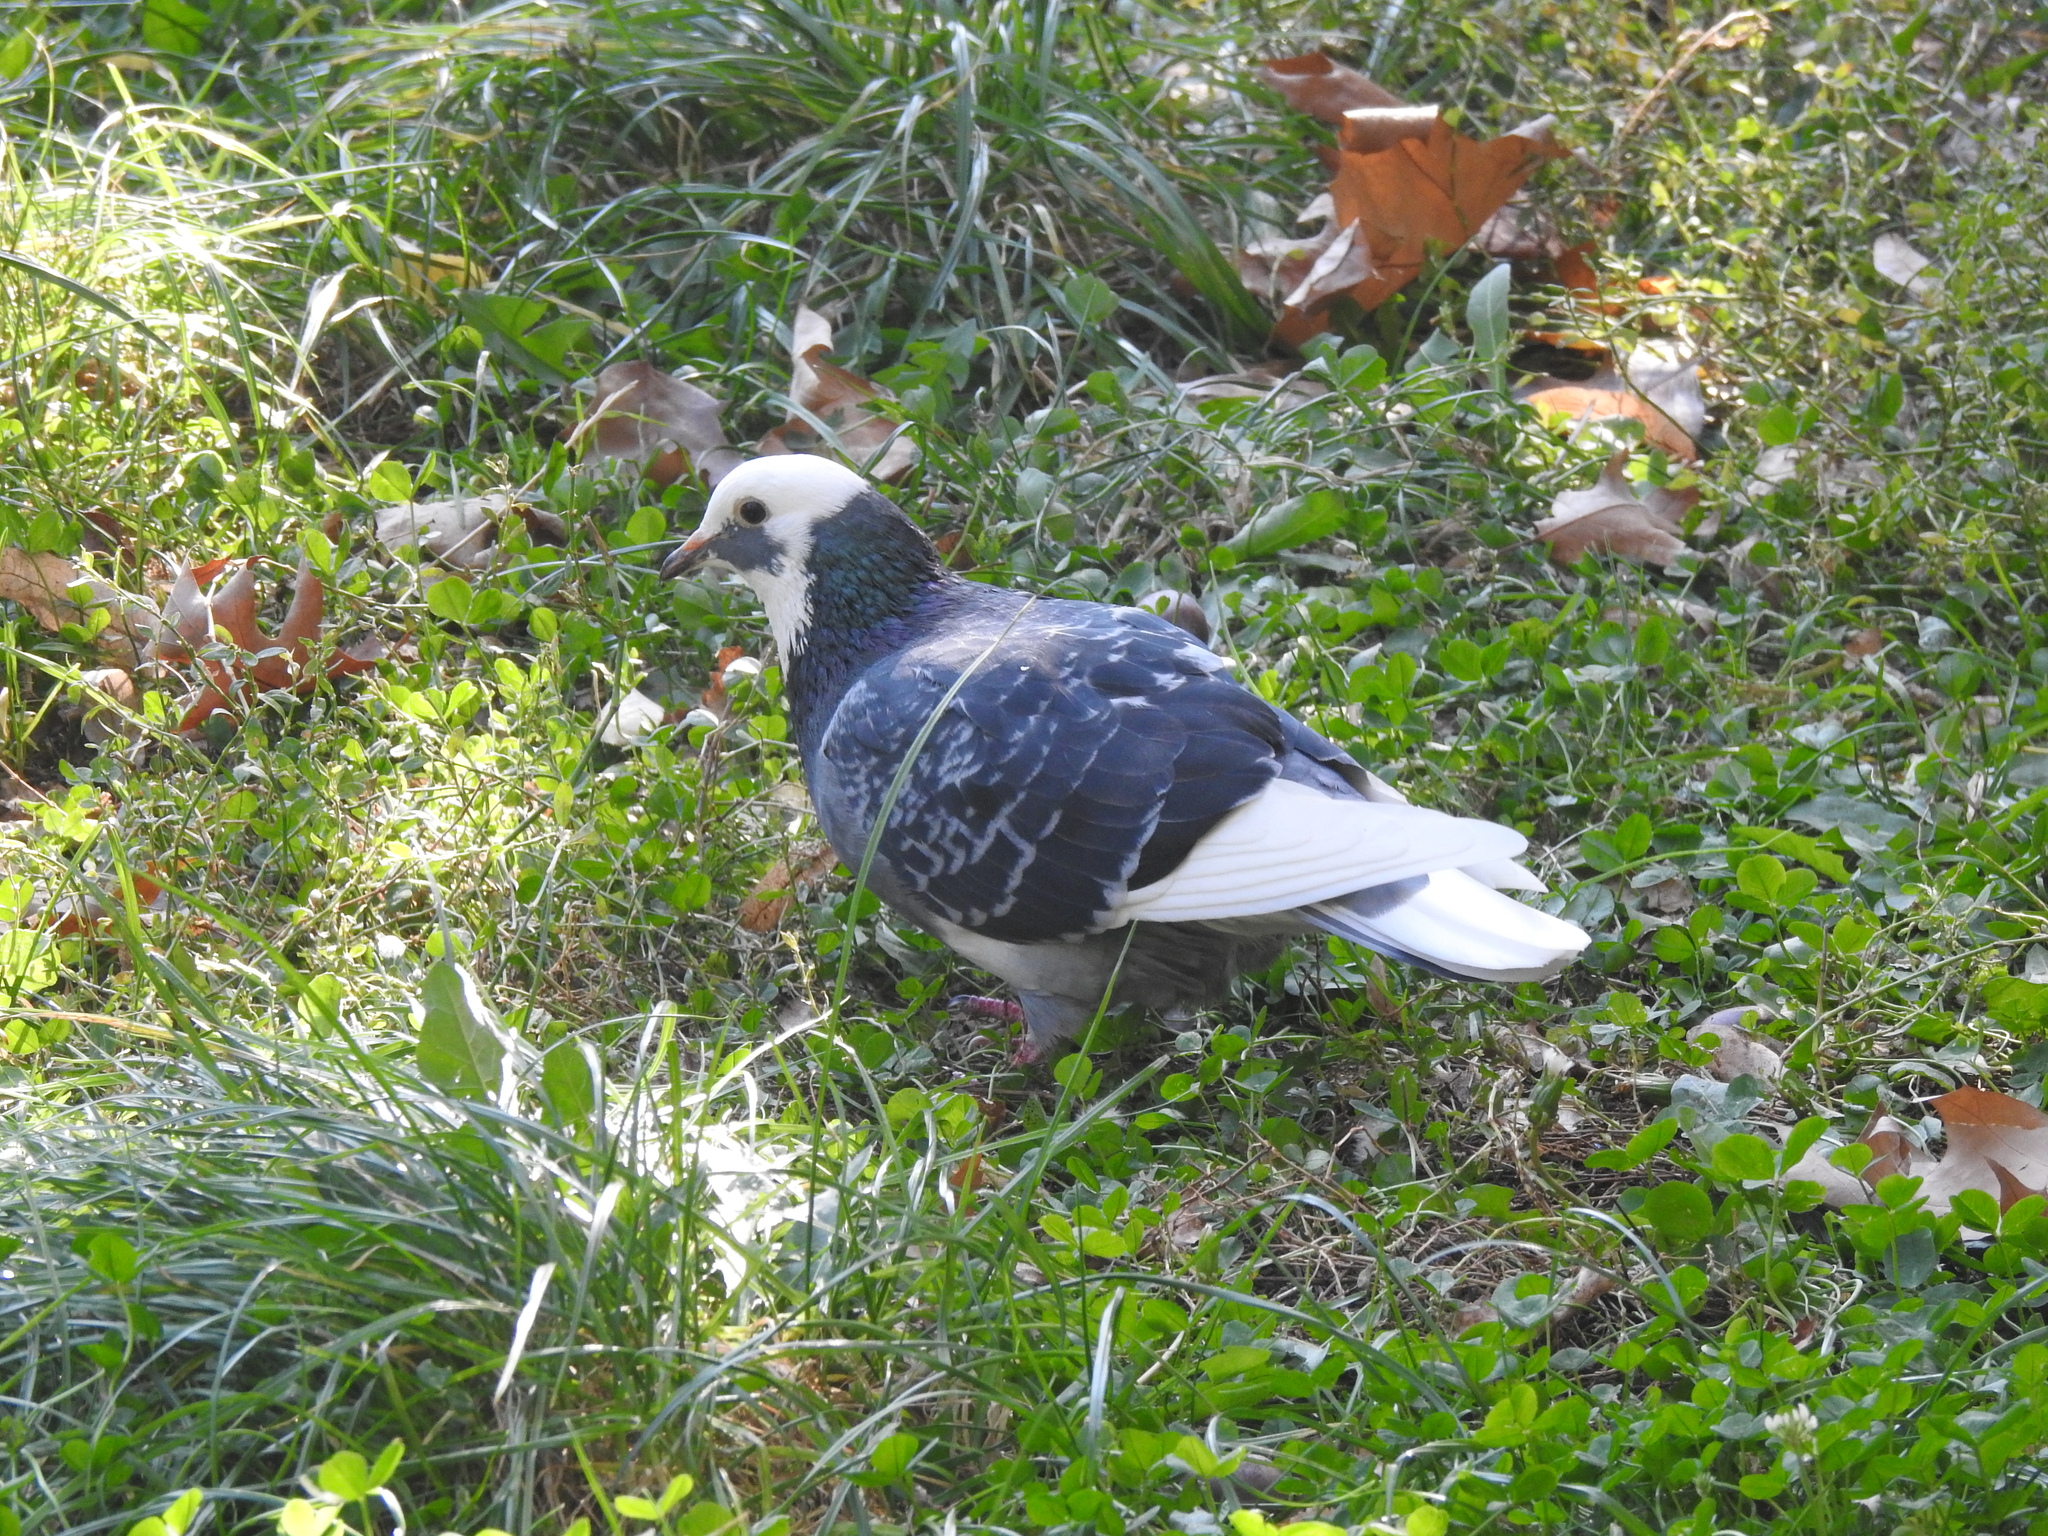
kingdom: Animalia
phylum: Chordata
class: Aves
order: Columbiformes
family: Columbidae
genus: Columba
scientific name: Columba livia
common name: Rock pigeon
